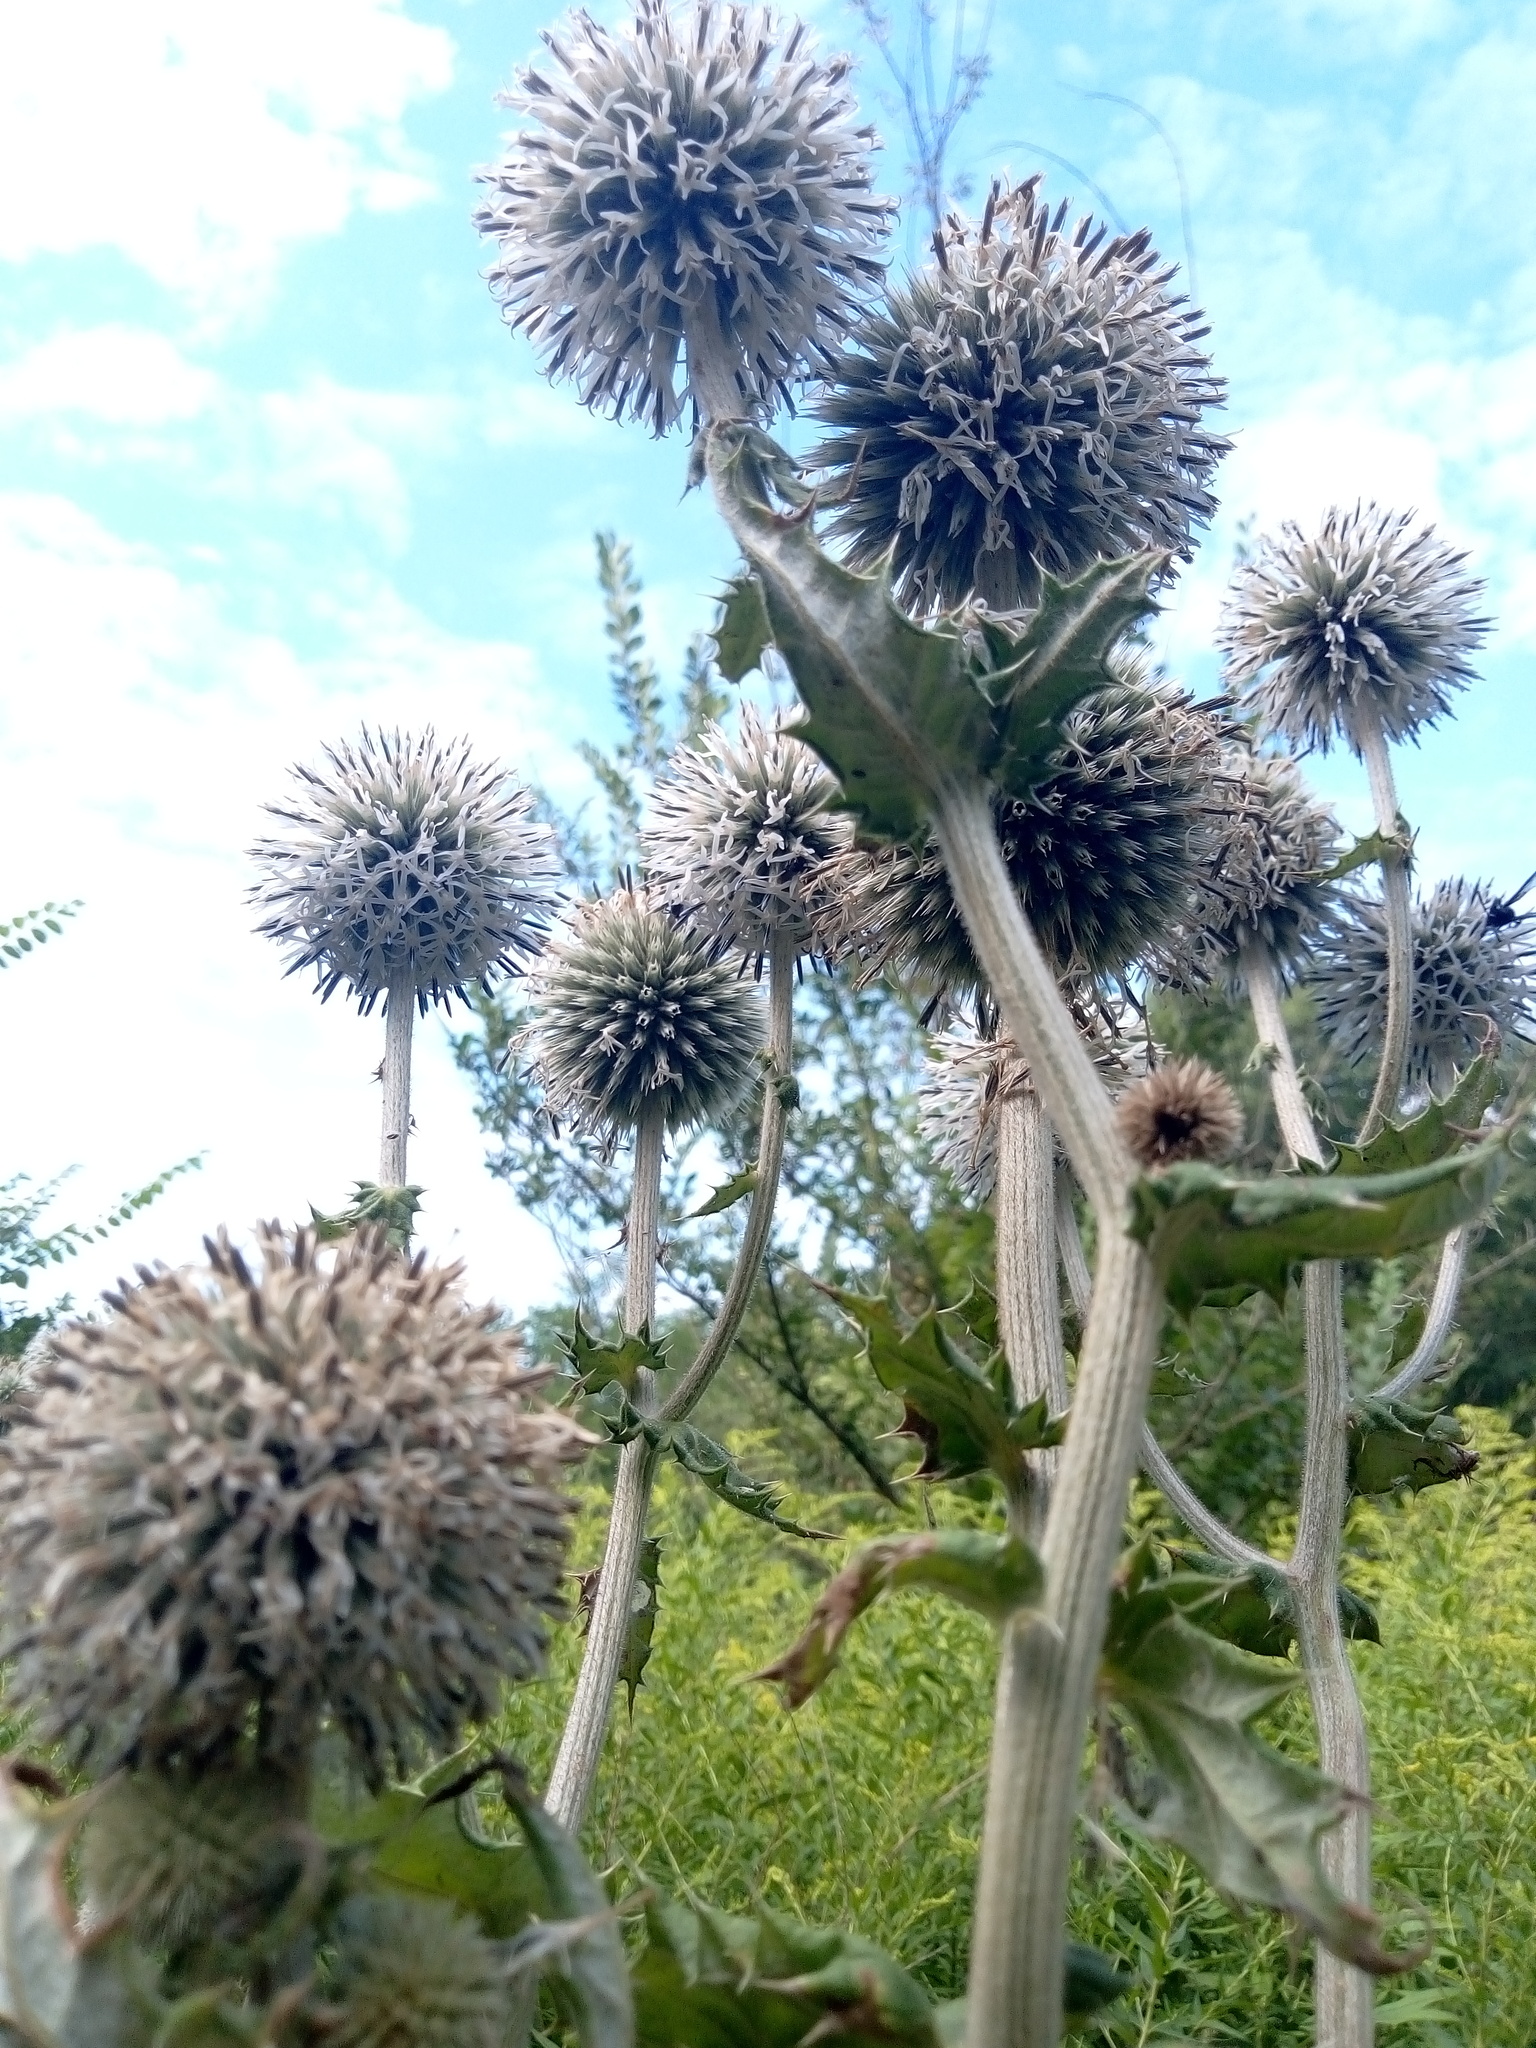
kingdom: Plantae
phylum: Tracheophyta
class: Magnoliopsida
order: Asterales
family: Asteraceae
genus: Echinops
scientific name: Echinops sphaerocephalus
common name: Glandular globe-thistle
